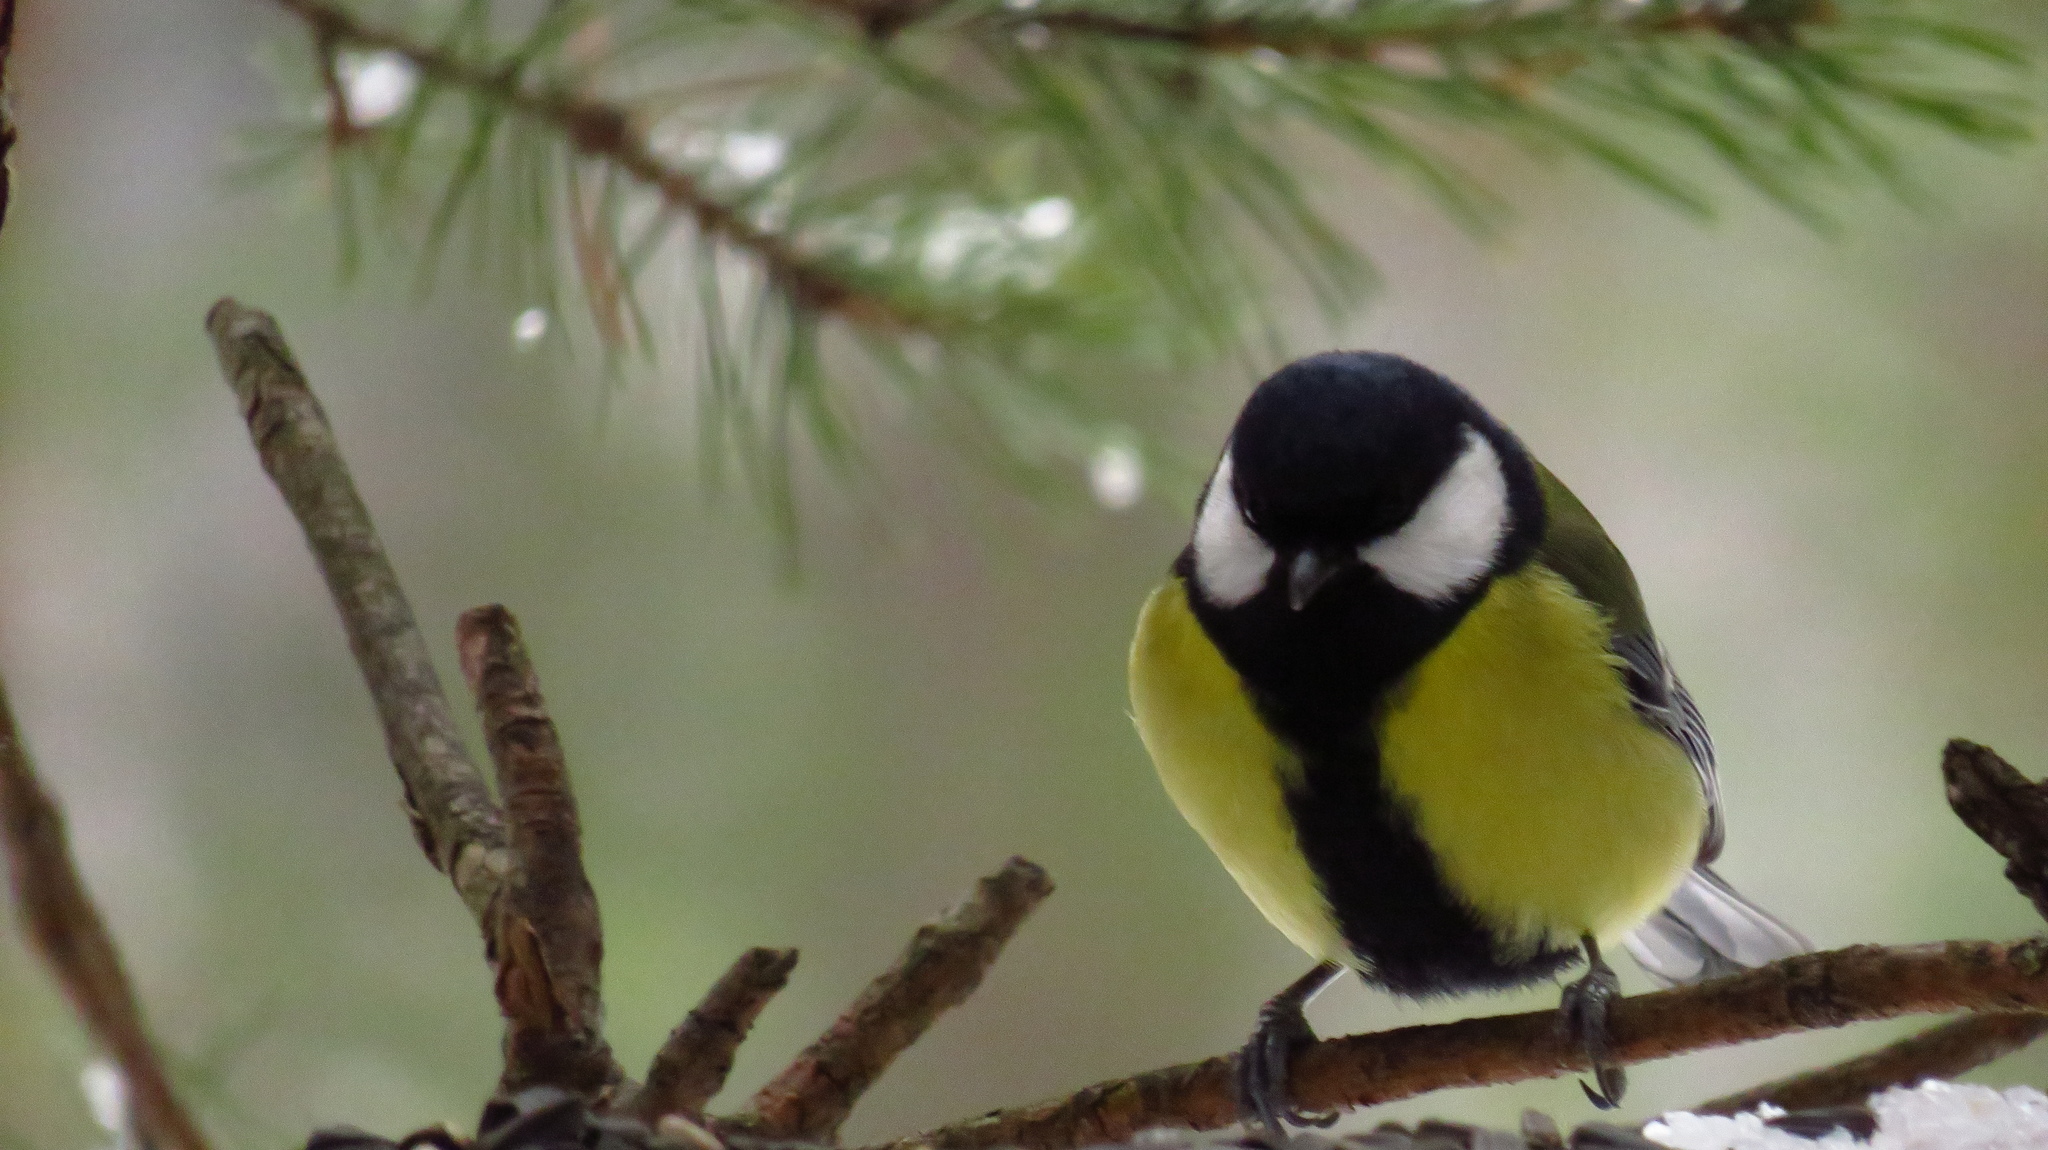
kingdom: Animalia
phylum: Chordata
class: Aves
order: Passeriformes
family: Paridae
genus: Parus
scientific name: Parus major
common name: Great tit
